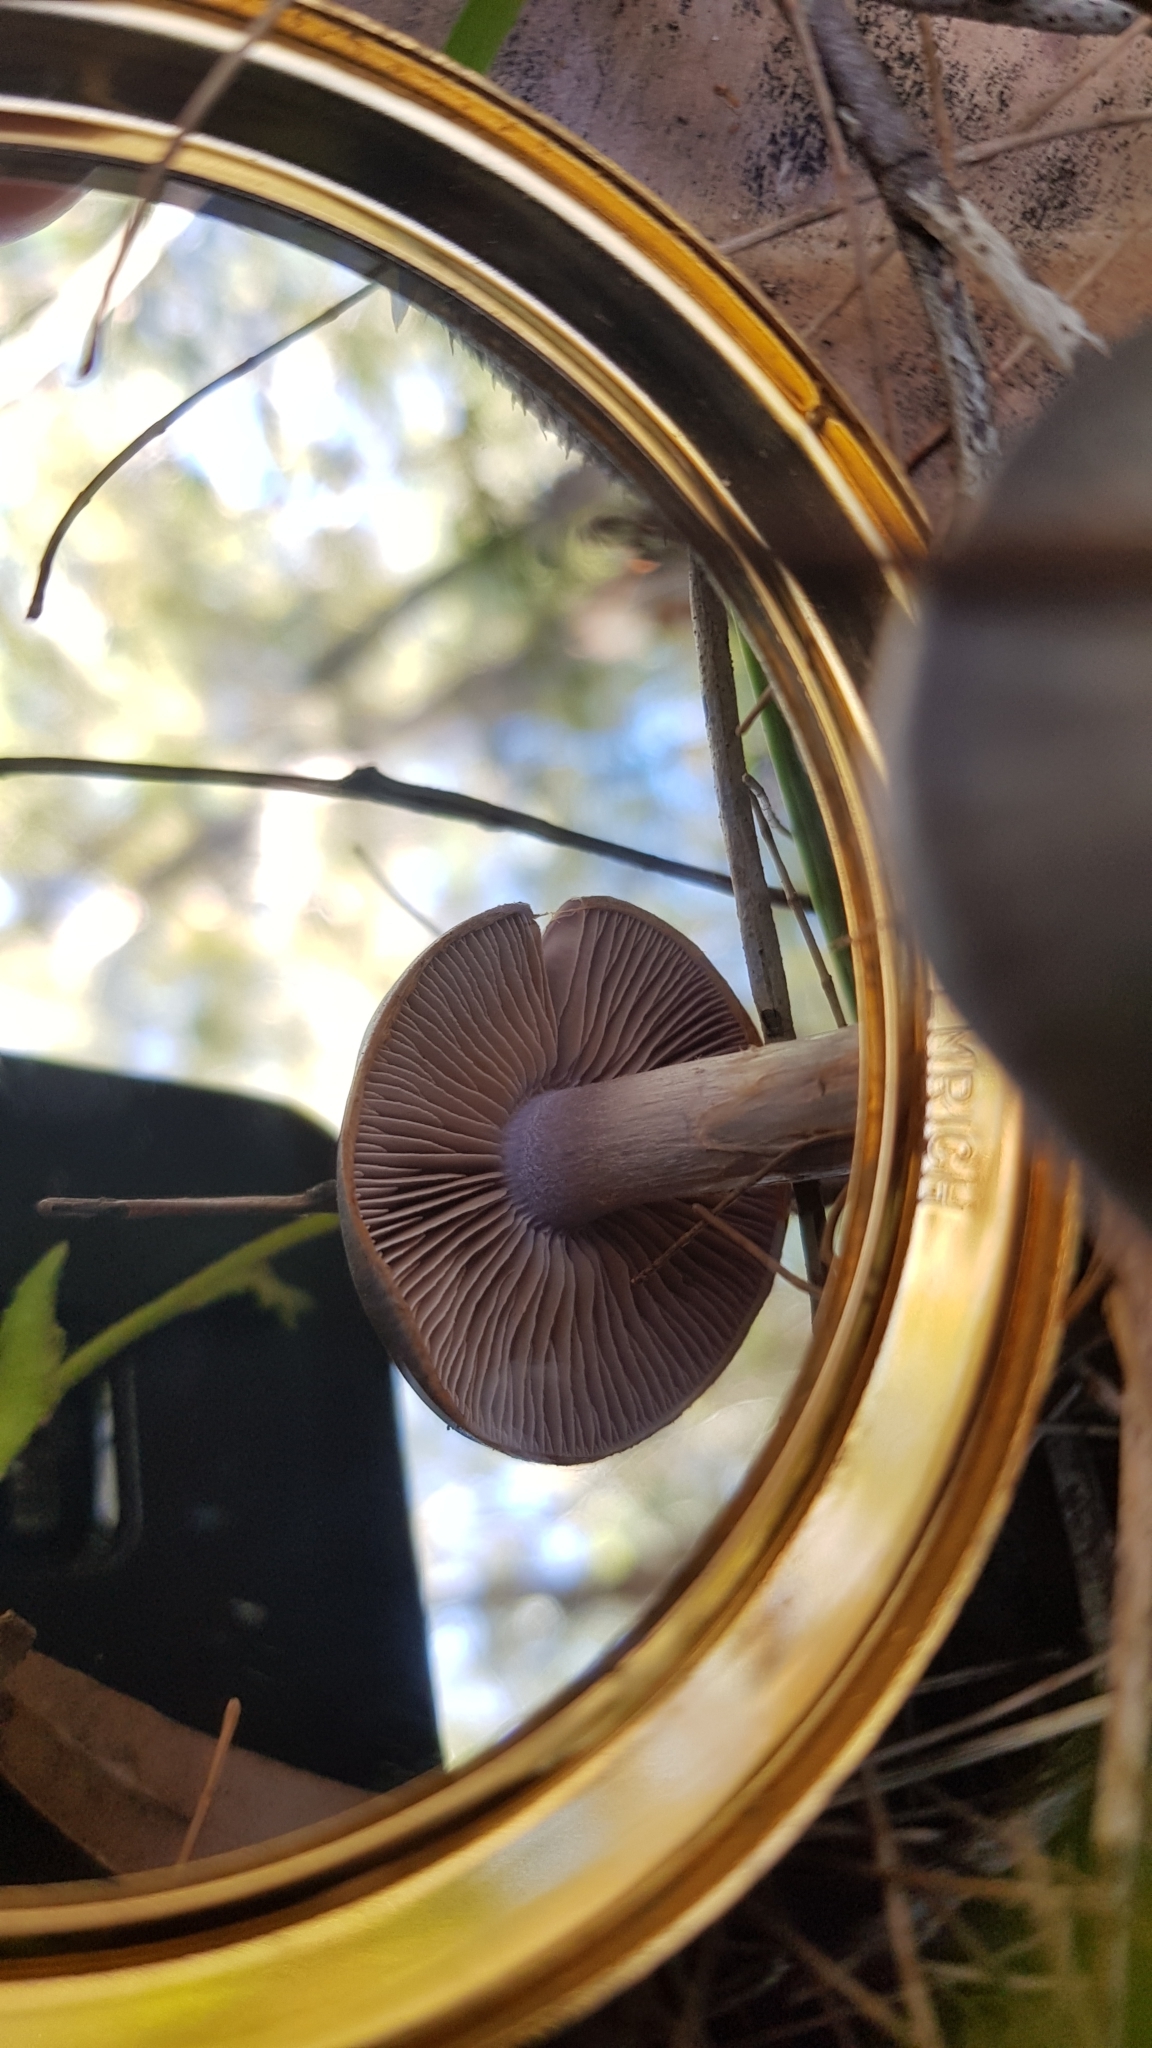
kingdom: Fungi
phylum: Basidiomycota
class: Agaricomycetes
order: Agaricales
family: Cortinariaceae
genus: Cortinarius
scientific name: Cortinarius rotundisporus
